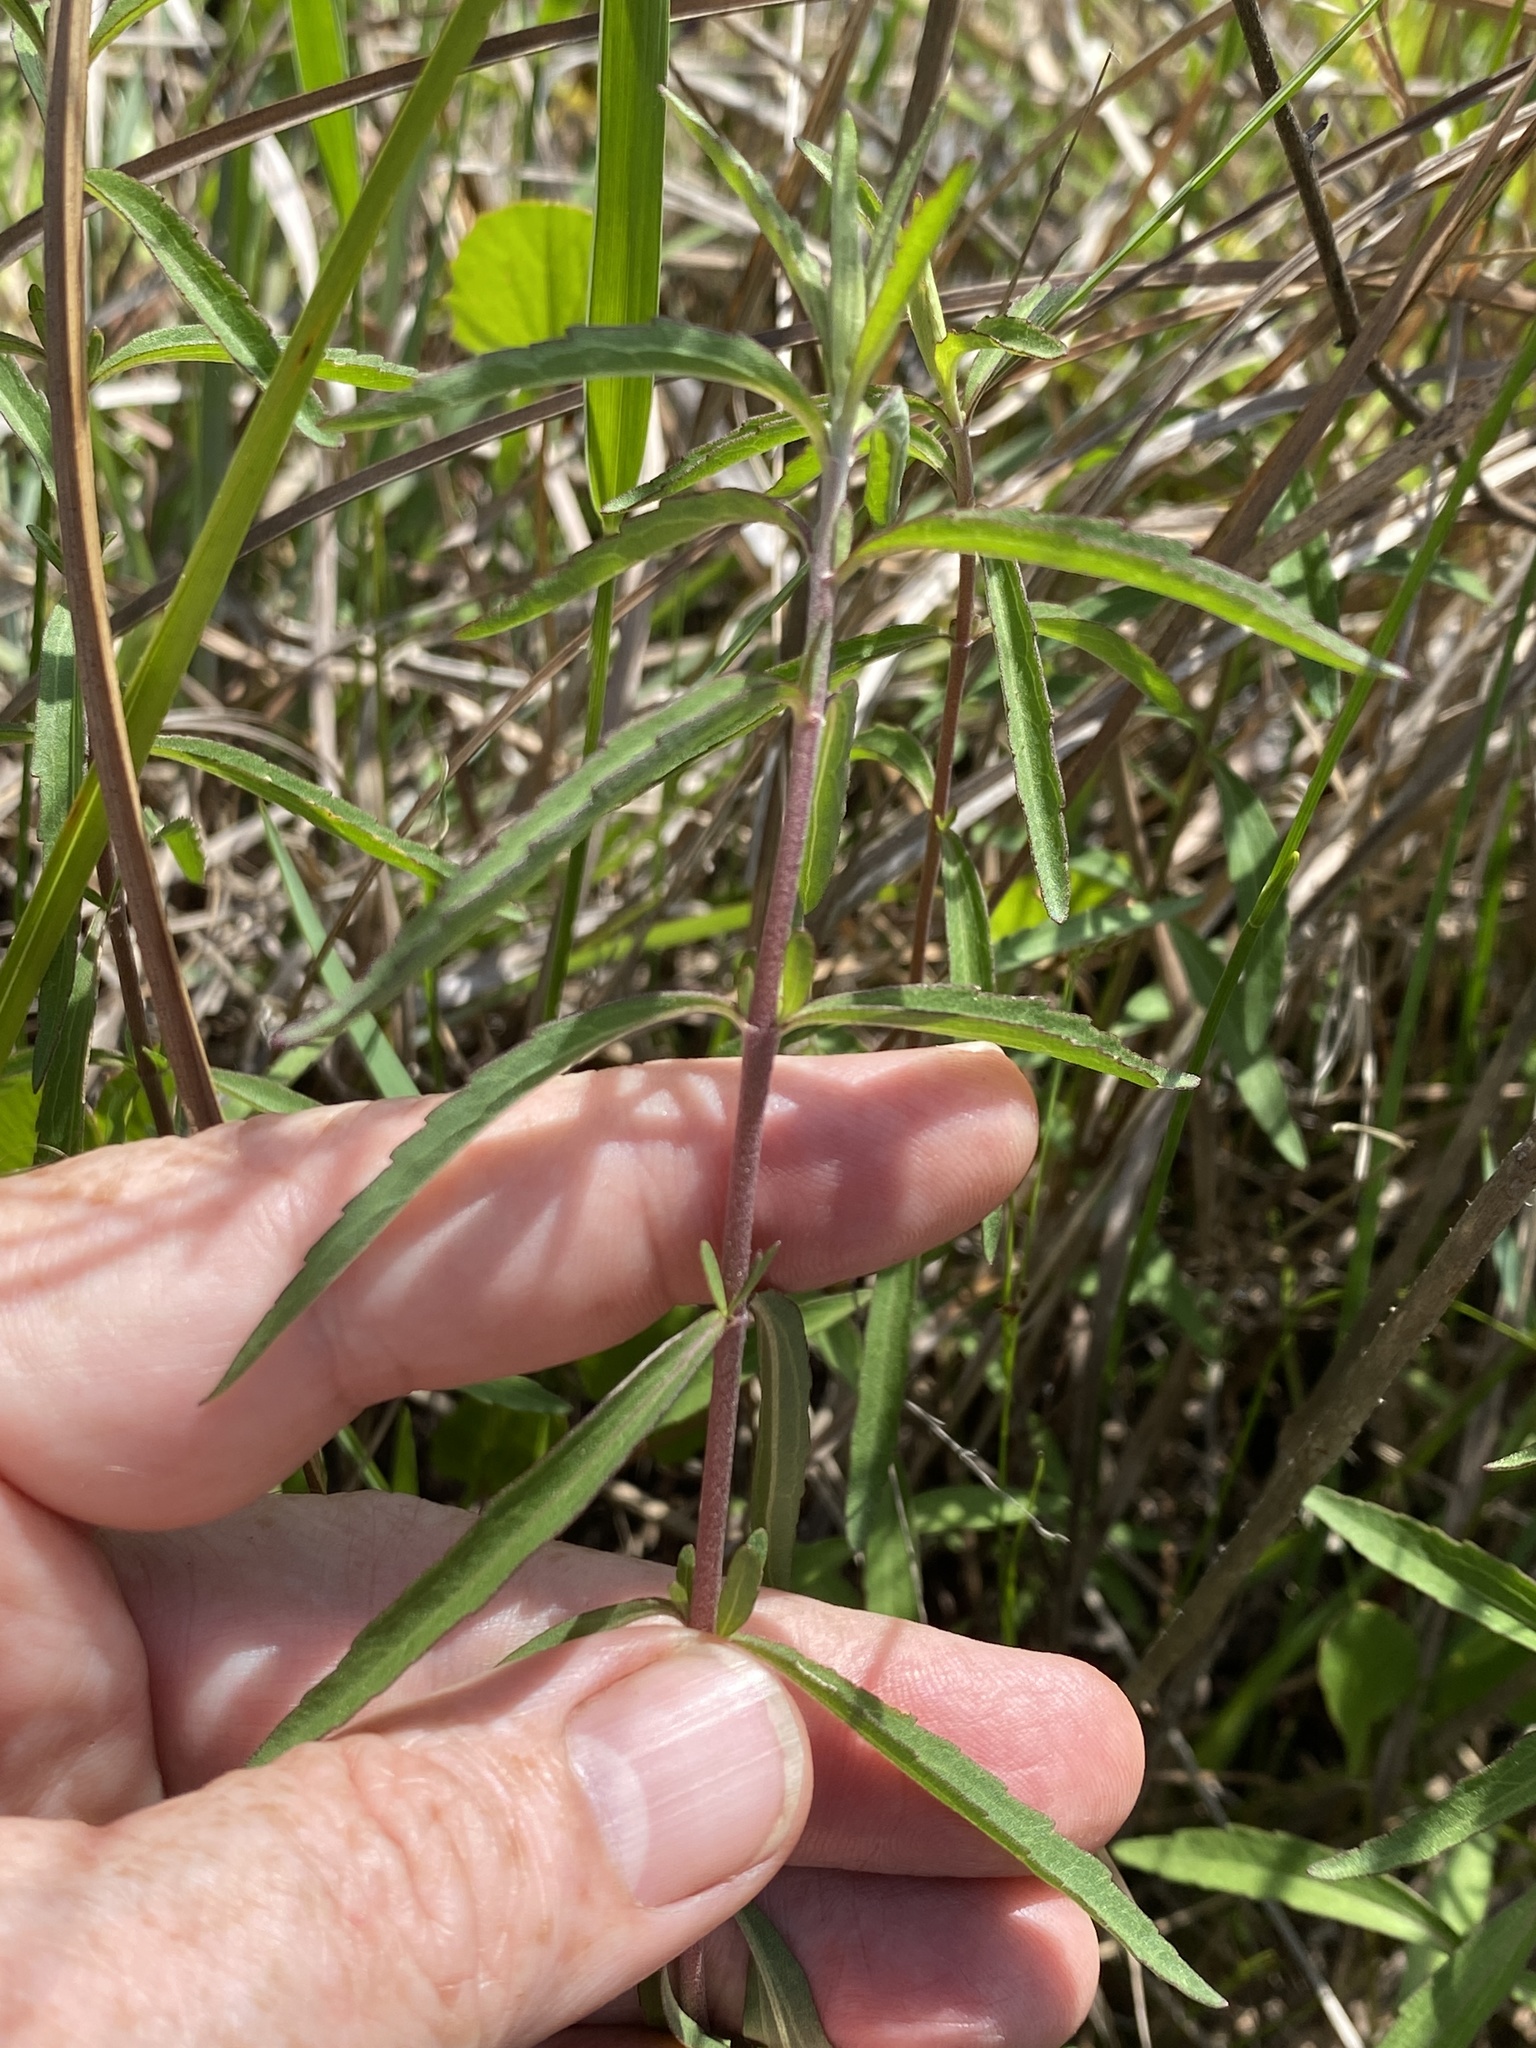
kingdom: Plantae
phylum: Tracheophyta
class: Magnoliopsida
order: Asterales
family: Asteraceae
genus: Eupatorium
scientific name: Eupatorium leucolepis
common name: Justiceweed
